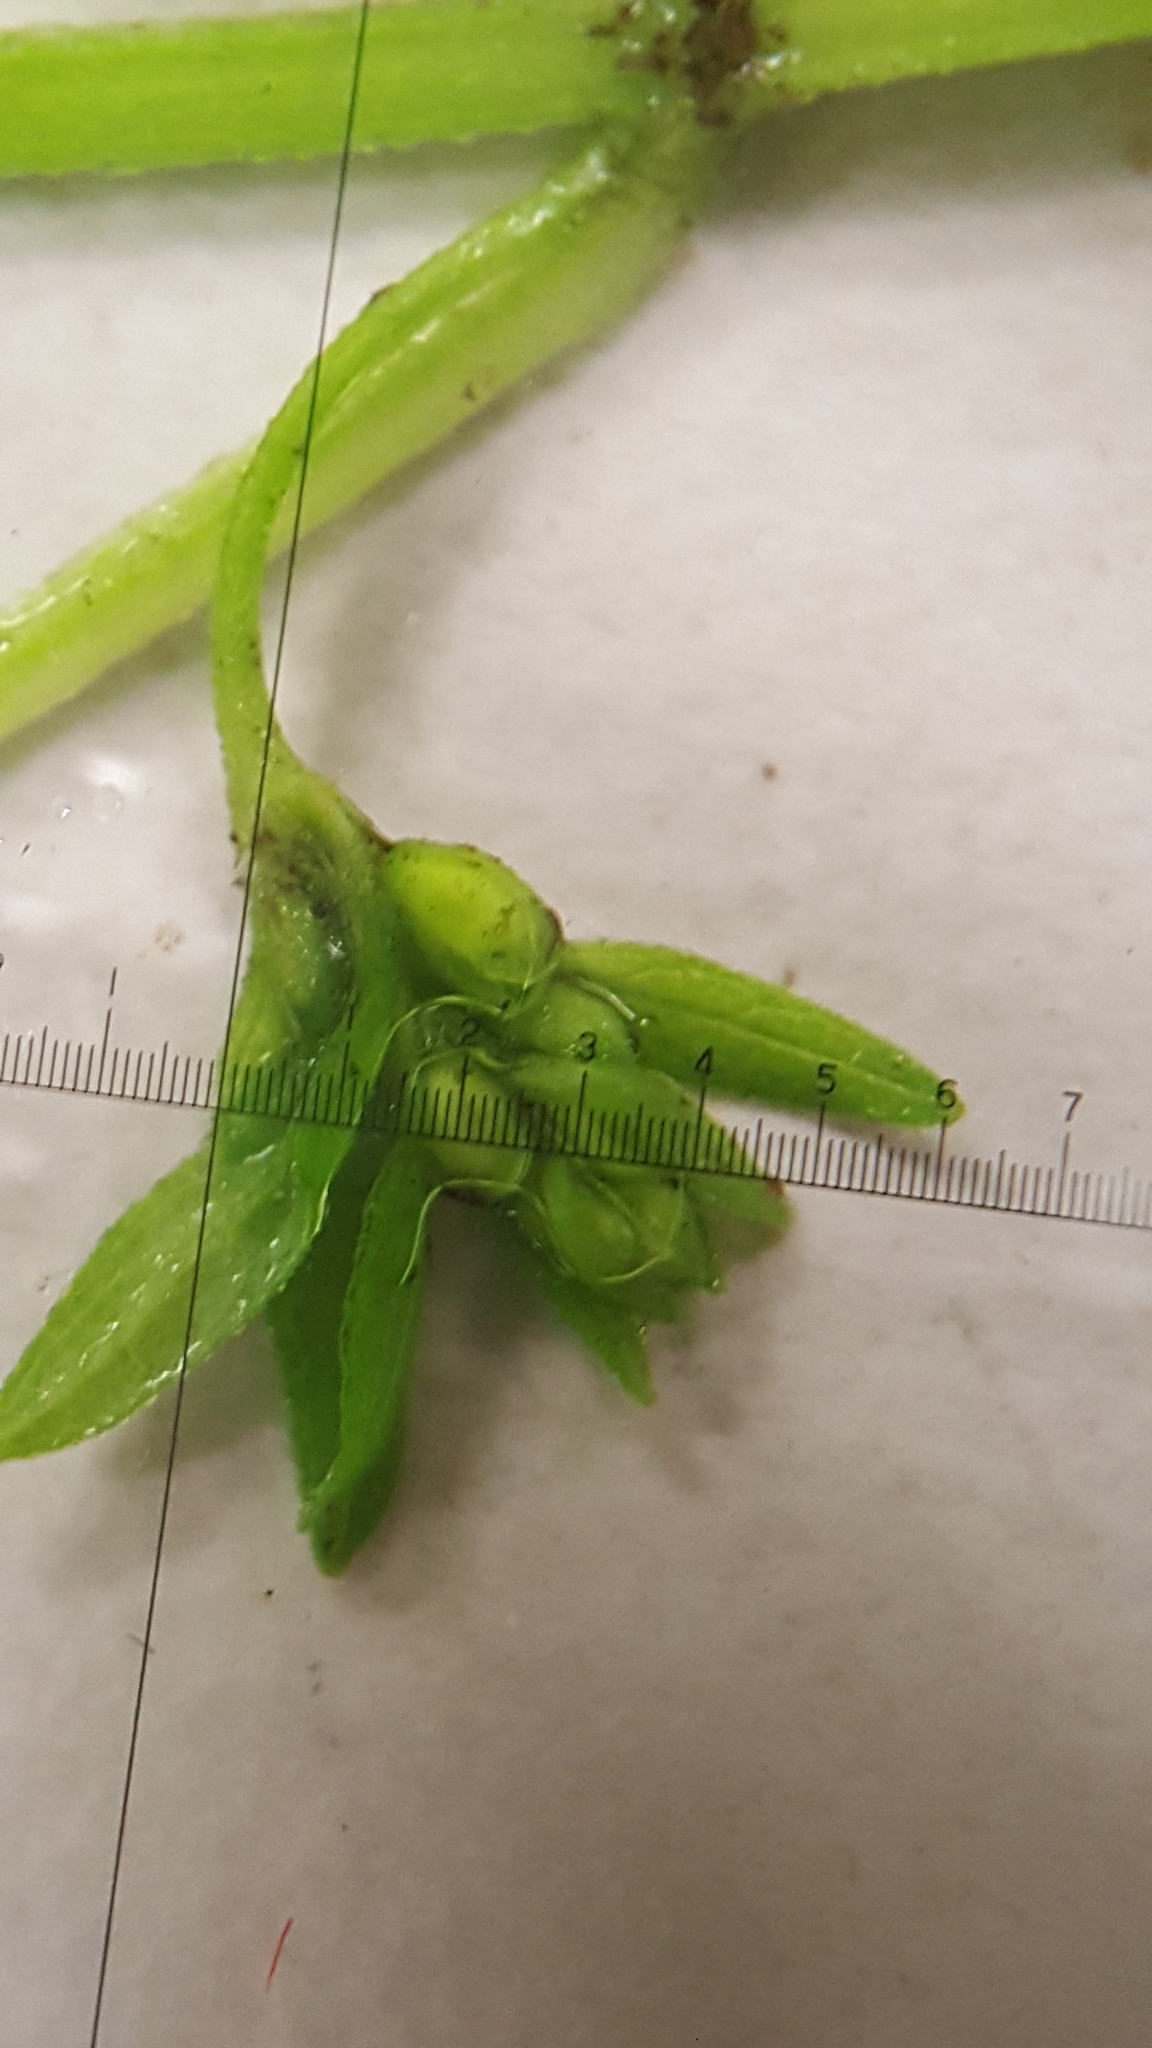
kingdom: Plantae
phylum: Tracheophyta
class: Magnoliopsida
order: Lamiales
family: Lamiaceae
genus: Scutellaria
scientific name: Scutellaria lateriflora
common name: Blue skullcap
